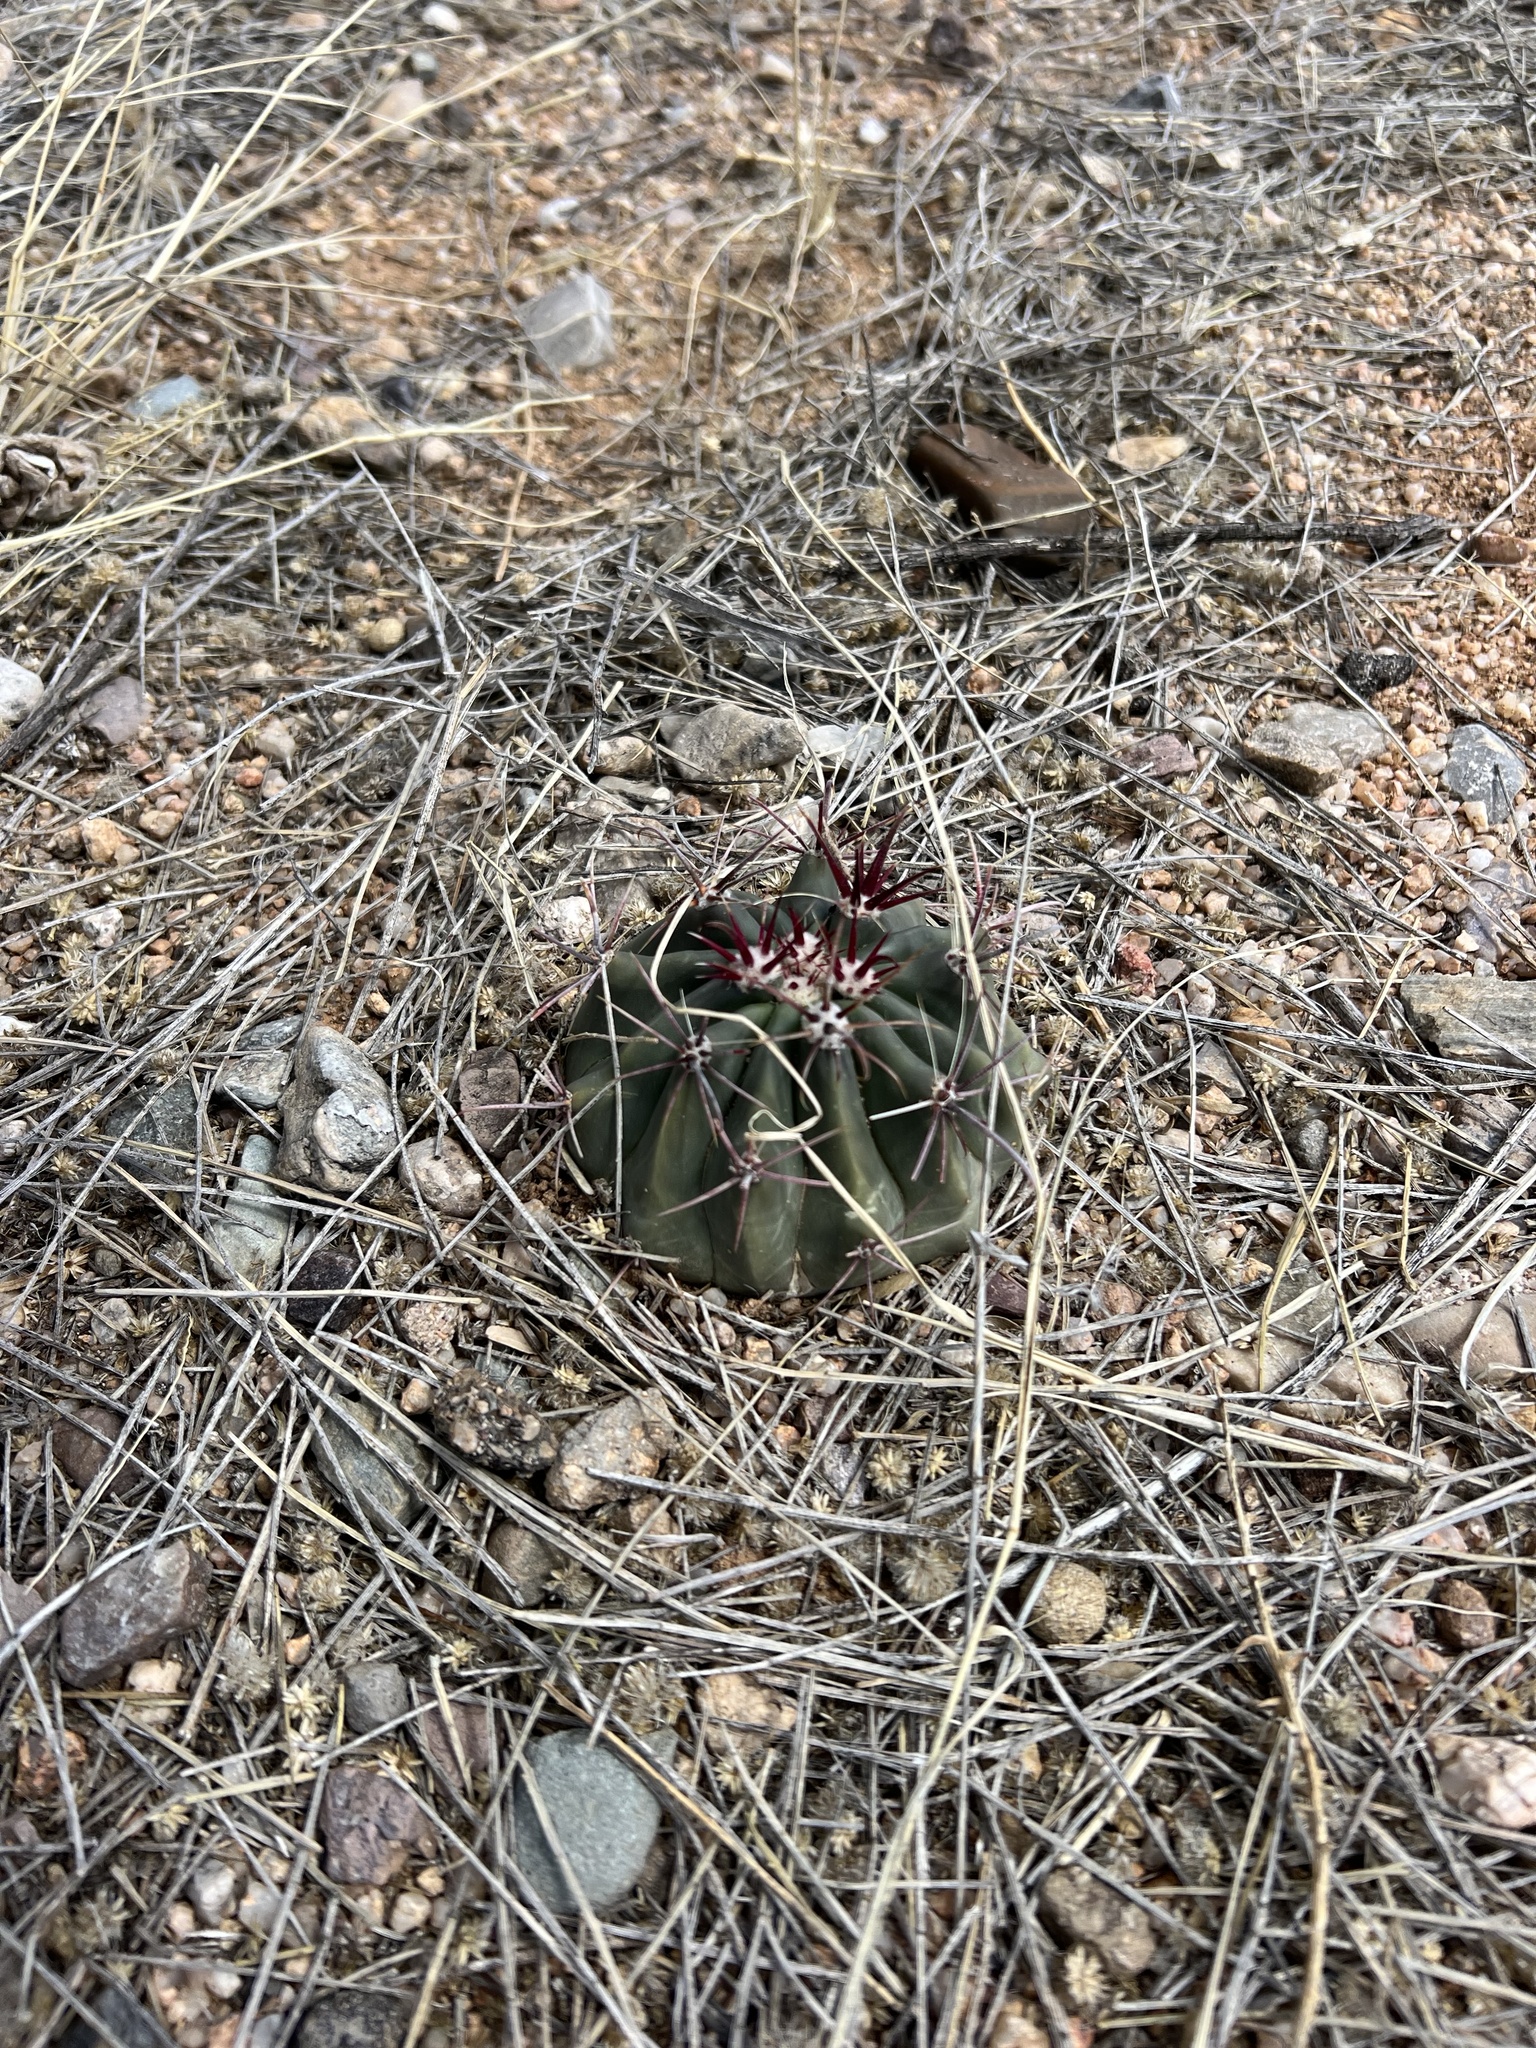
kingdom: Plantae
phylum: Tracheophyta
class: Magnoliopsida
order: Caryophyllales
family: Cactaceae
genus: Ferocactus
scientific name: Ferocactus wislizeni
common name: Candy barrel cactus
